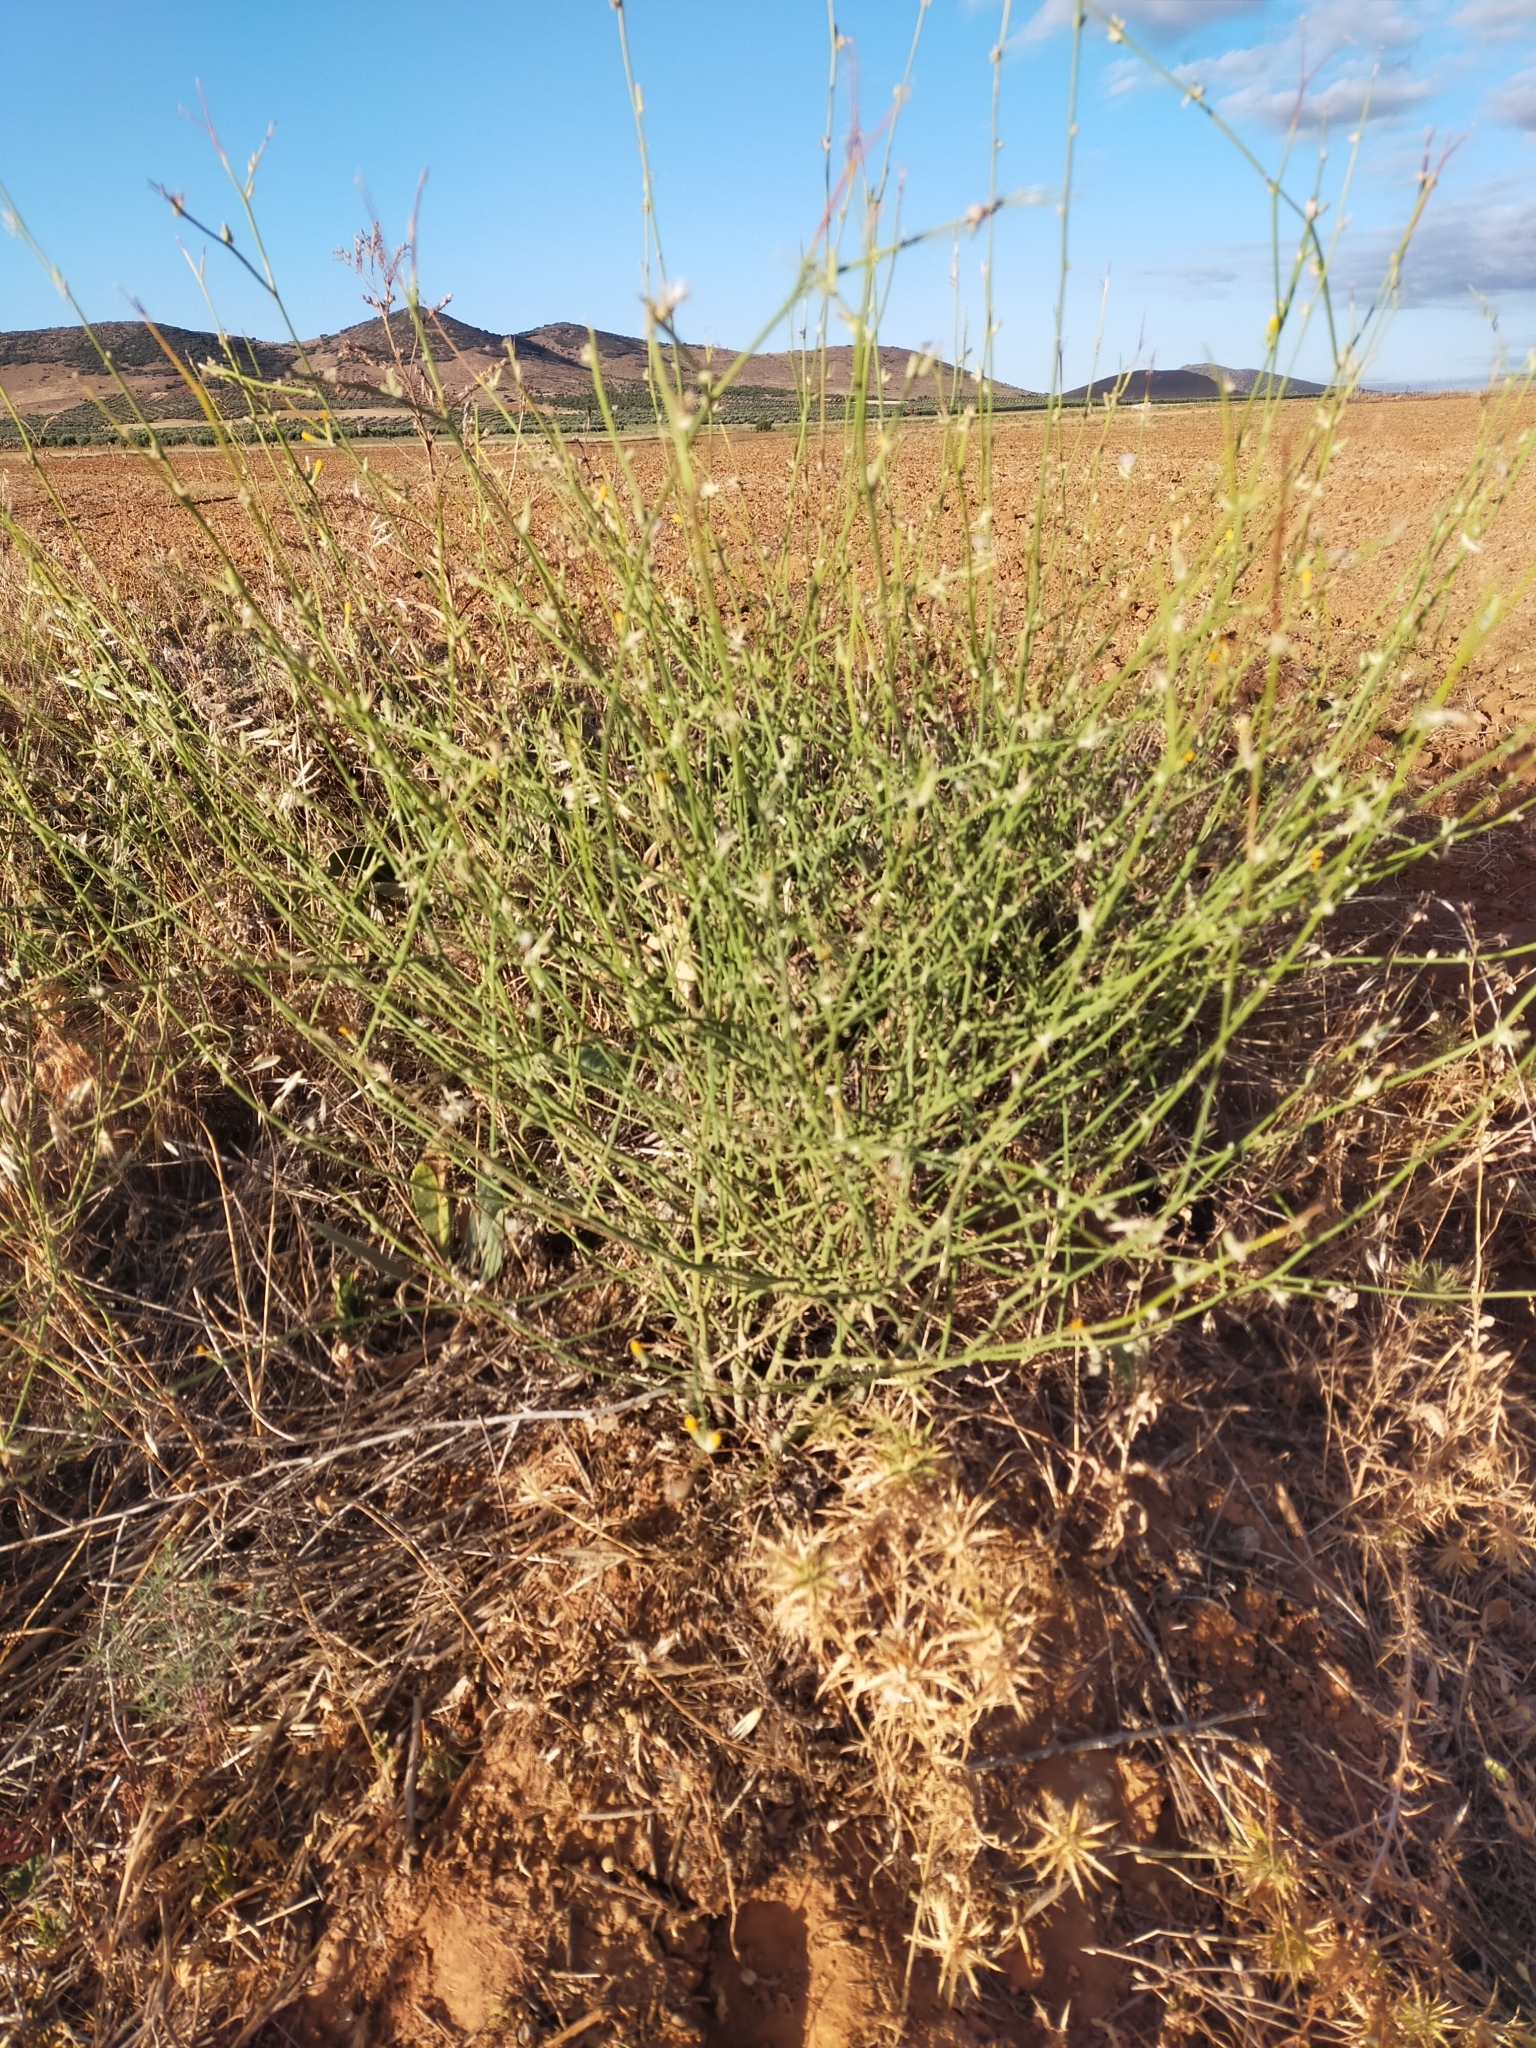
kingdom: Plantae
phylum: Tracheophyta
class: Magnoliopsida
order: Asterales
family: Asteraceae
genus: Chondrilla
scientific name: Chondrilla juncea
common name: Skeleton weed
